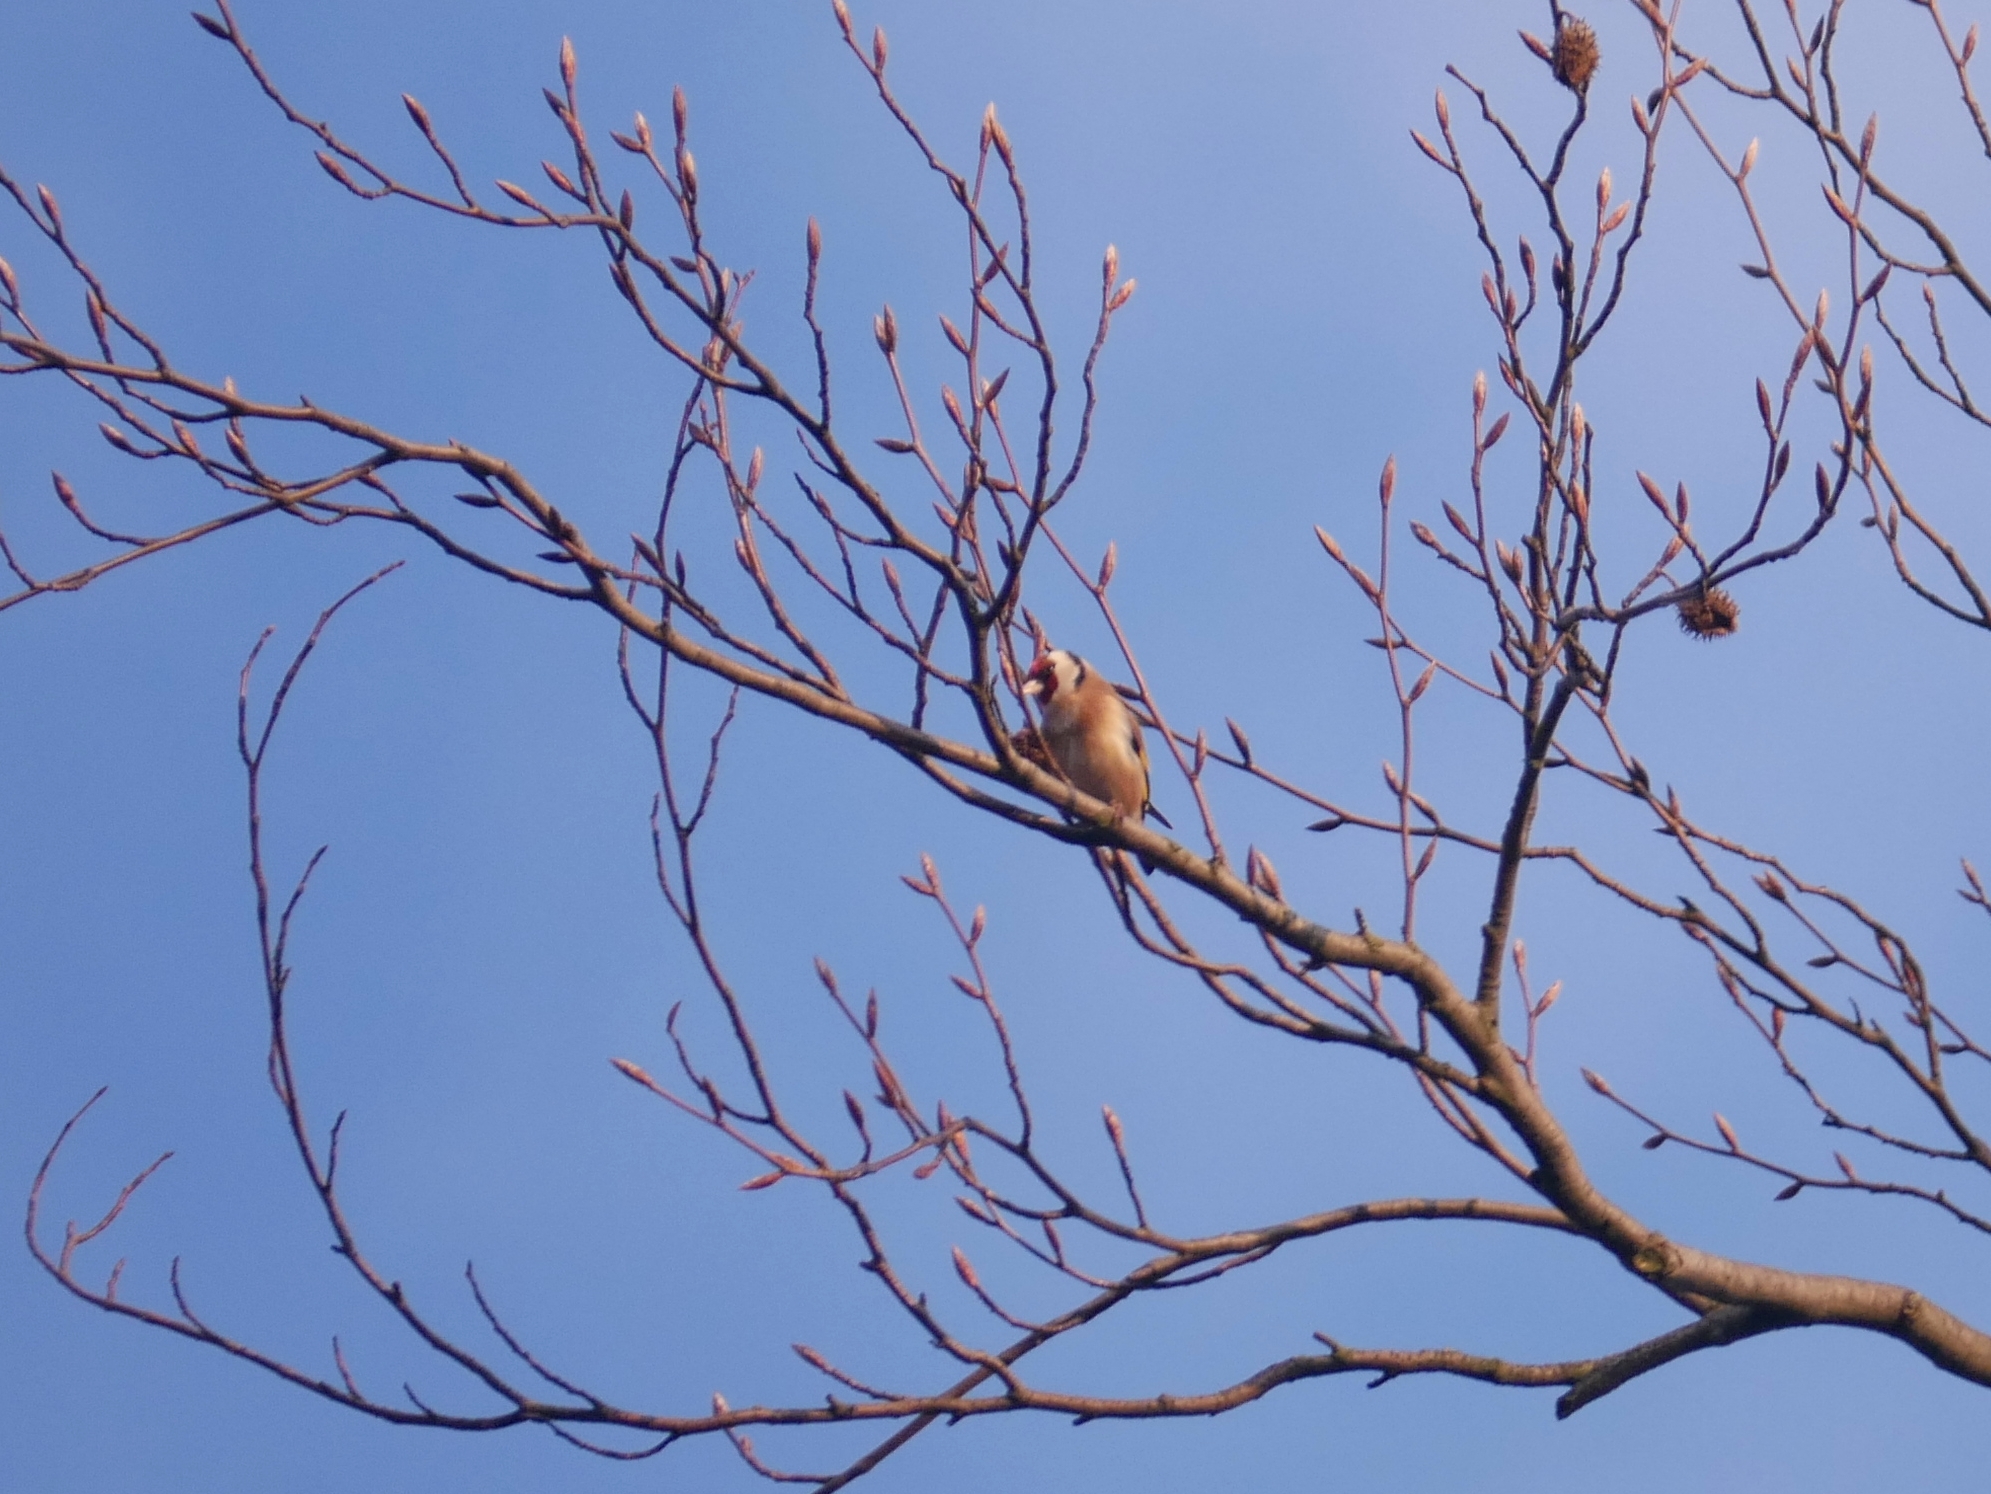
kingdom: Animalia
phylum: Chordata
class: Aves
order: Passeriformes
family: Fringillidae
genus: Carduelis
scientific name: Carduelis carduelis
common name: European goldfinch
